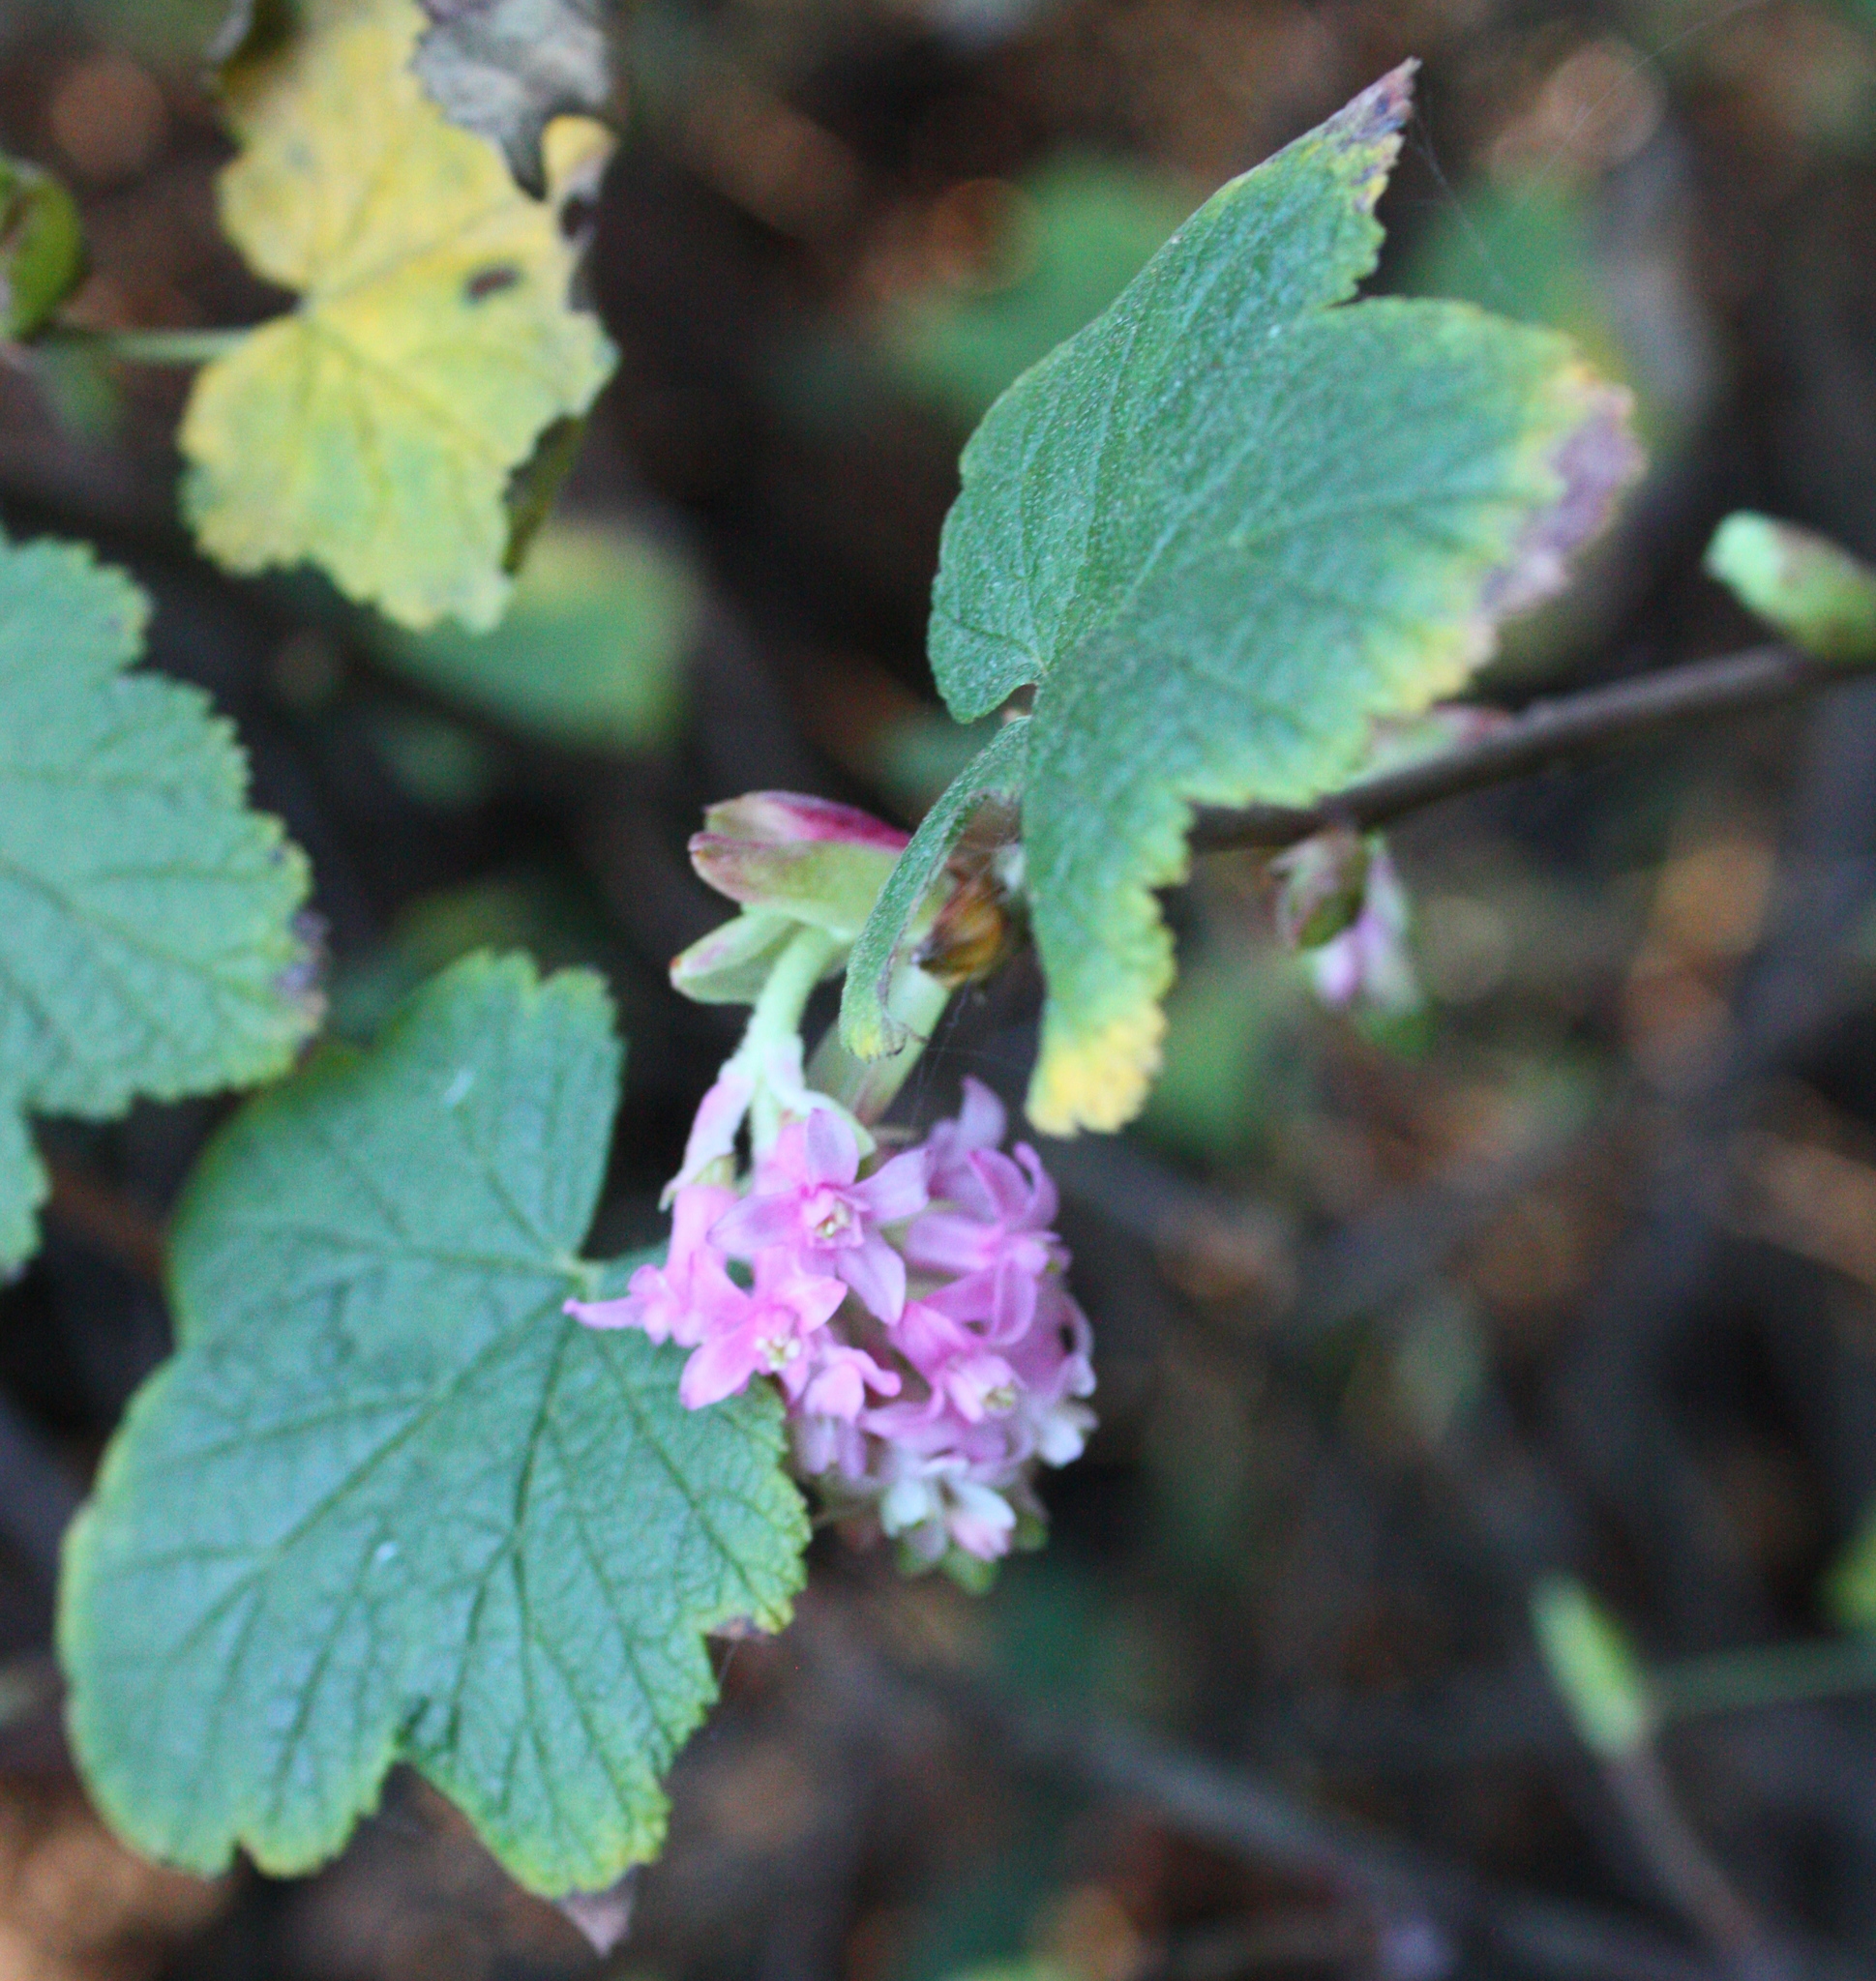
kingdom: Plantae
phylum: Tracheophyta
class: Magnoliopsida
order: Saxifragales
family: Grossulariaceae
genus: Ribes
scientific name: Ribes sanguineum
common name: Flowering currant
